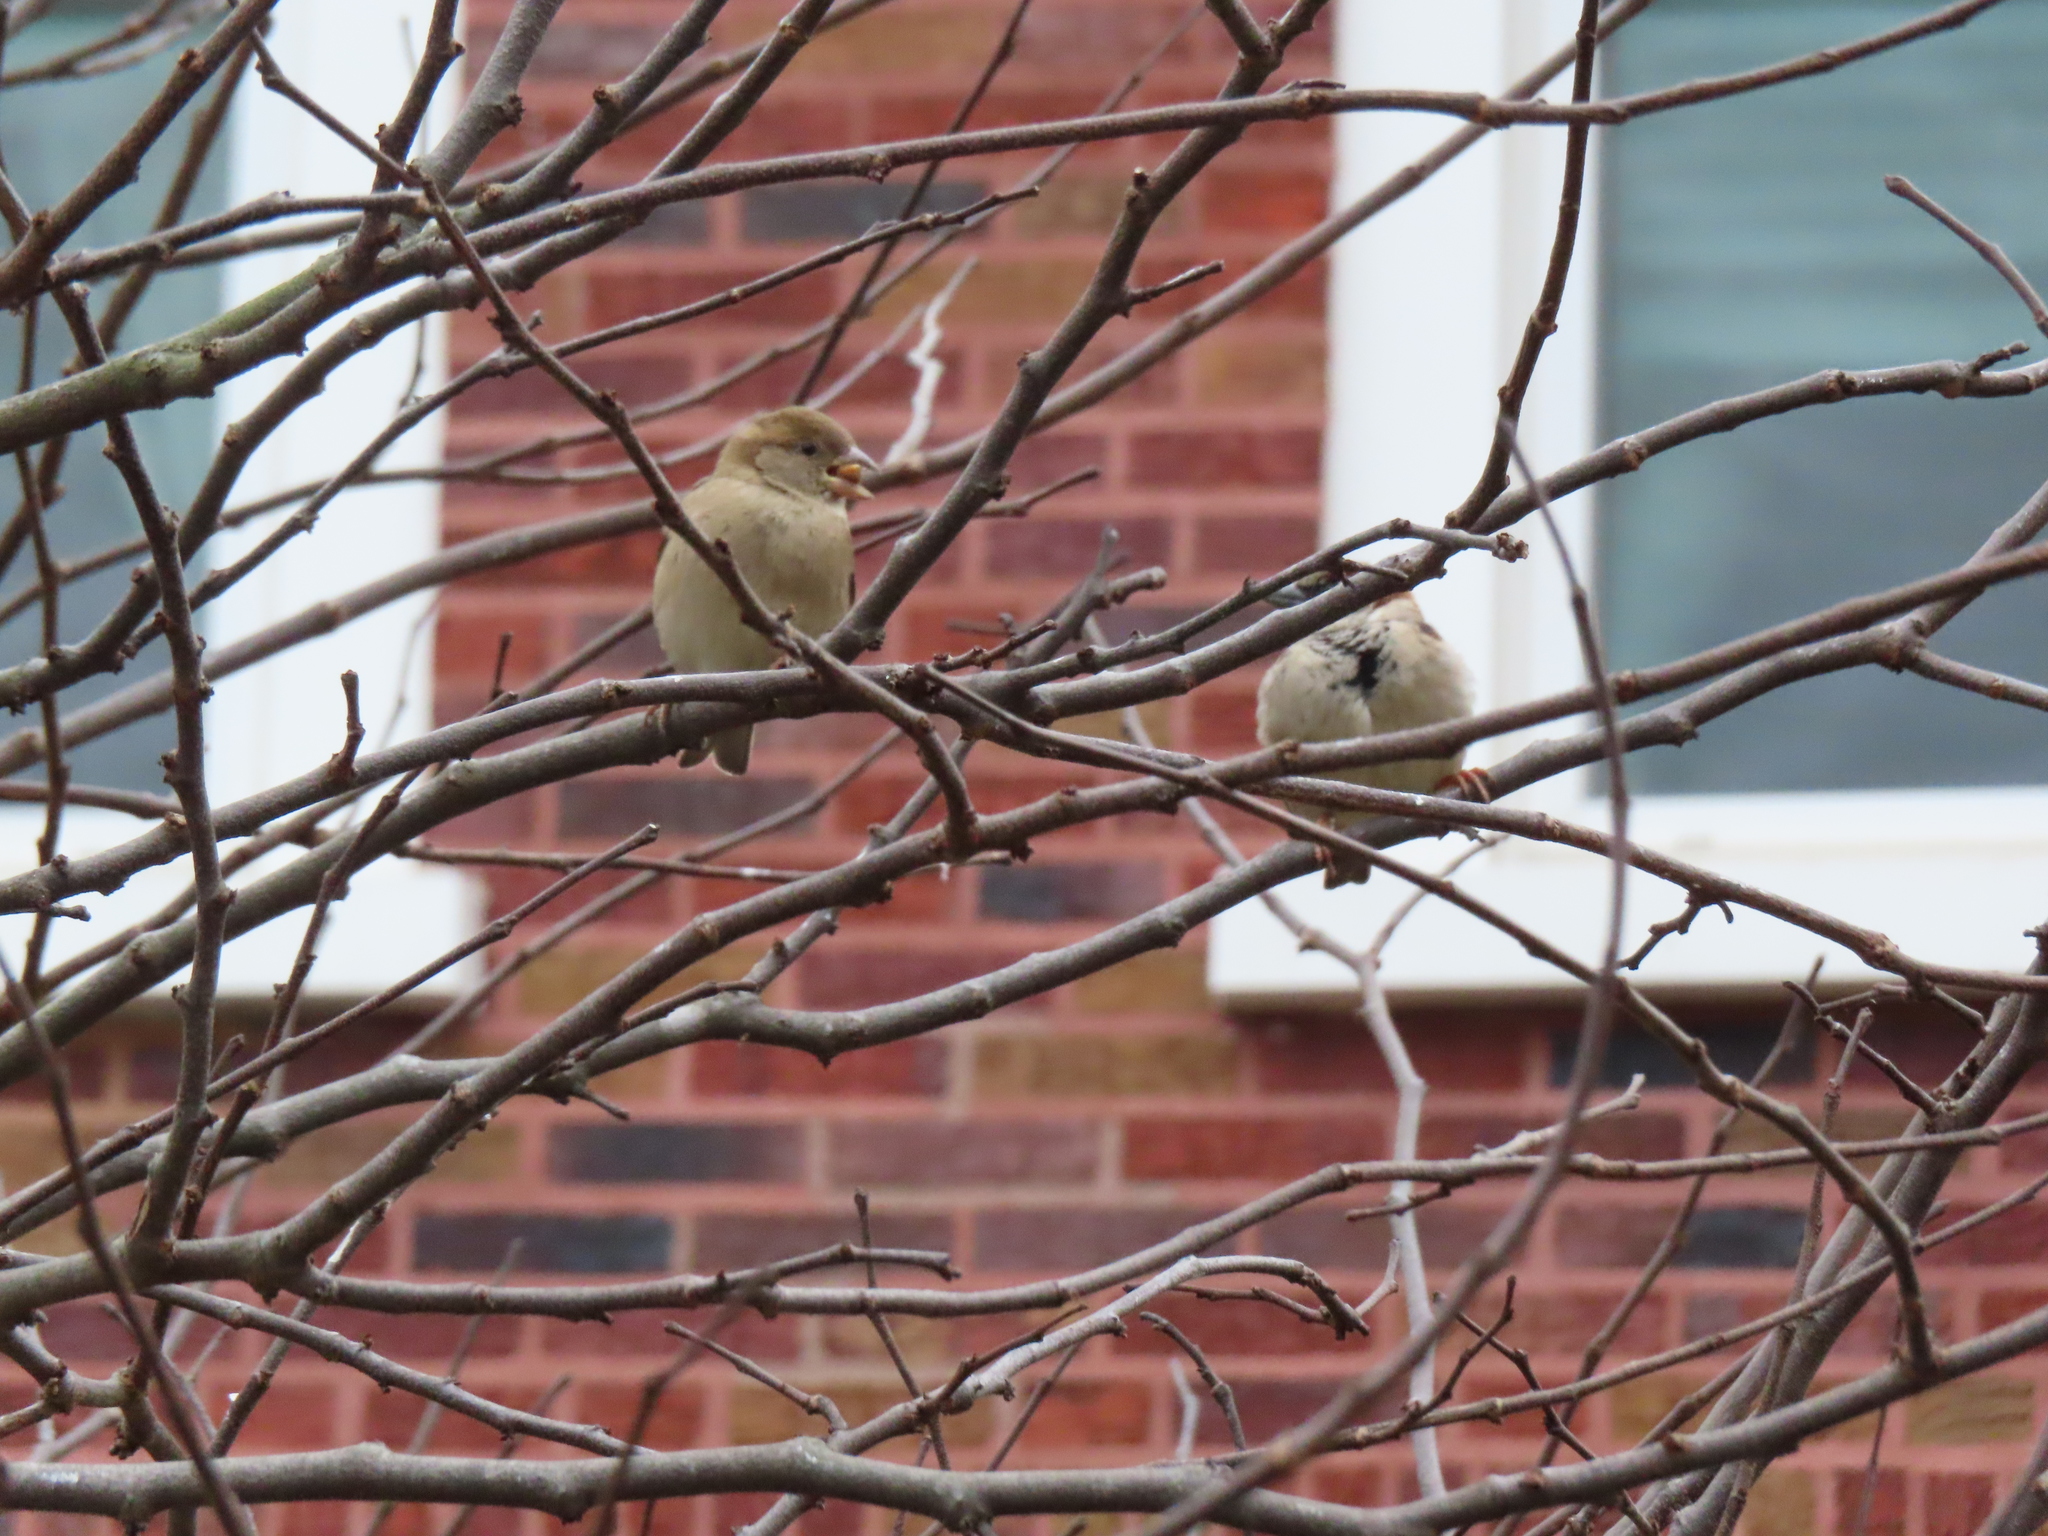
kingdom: Animalia
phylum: Chordata
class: Aves
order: Passeriformes
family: Passeridae
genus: Passer
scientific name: Passer domesticus
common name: House sparrow
